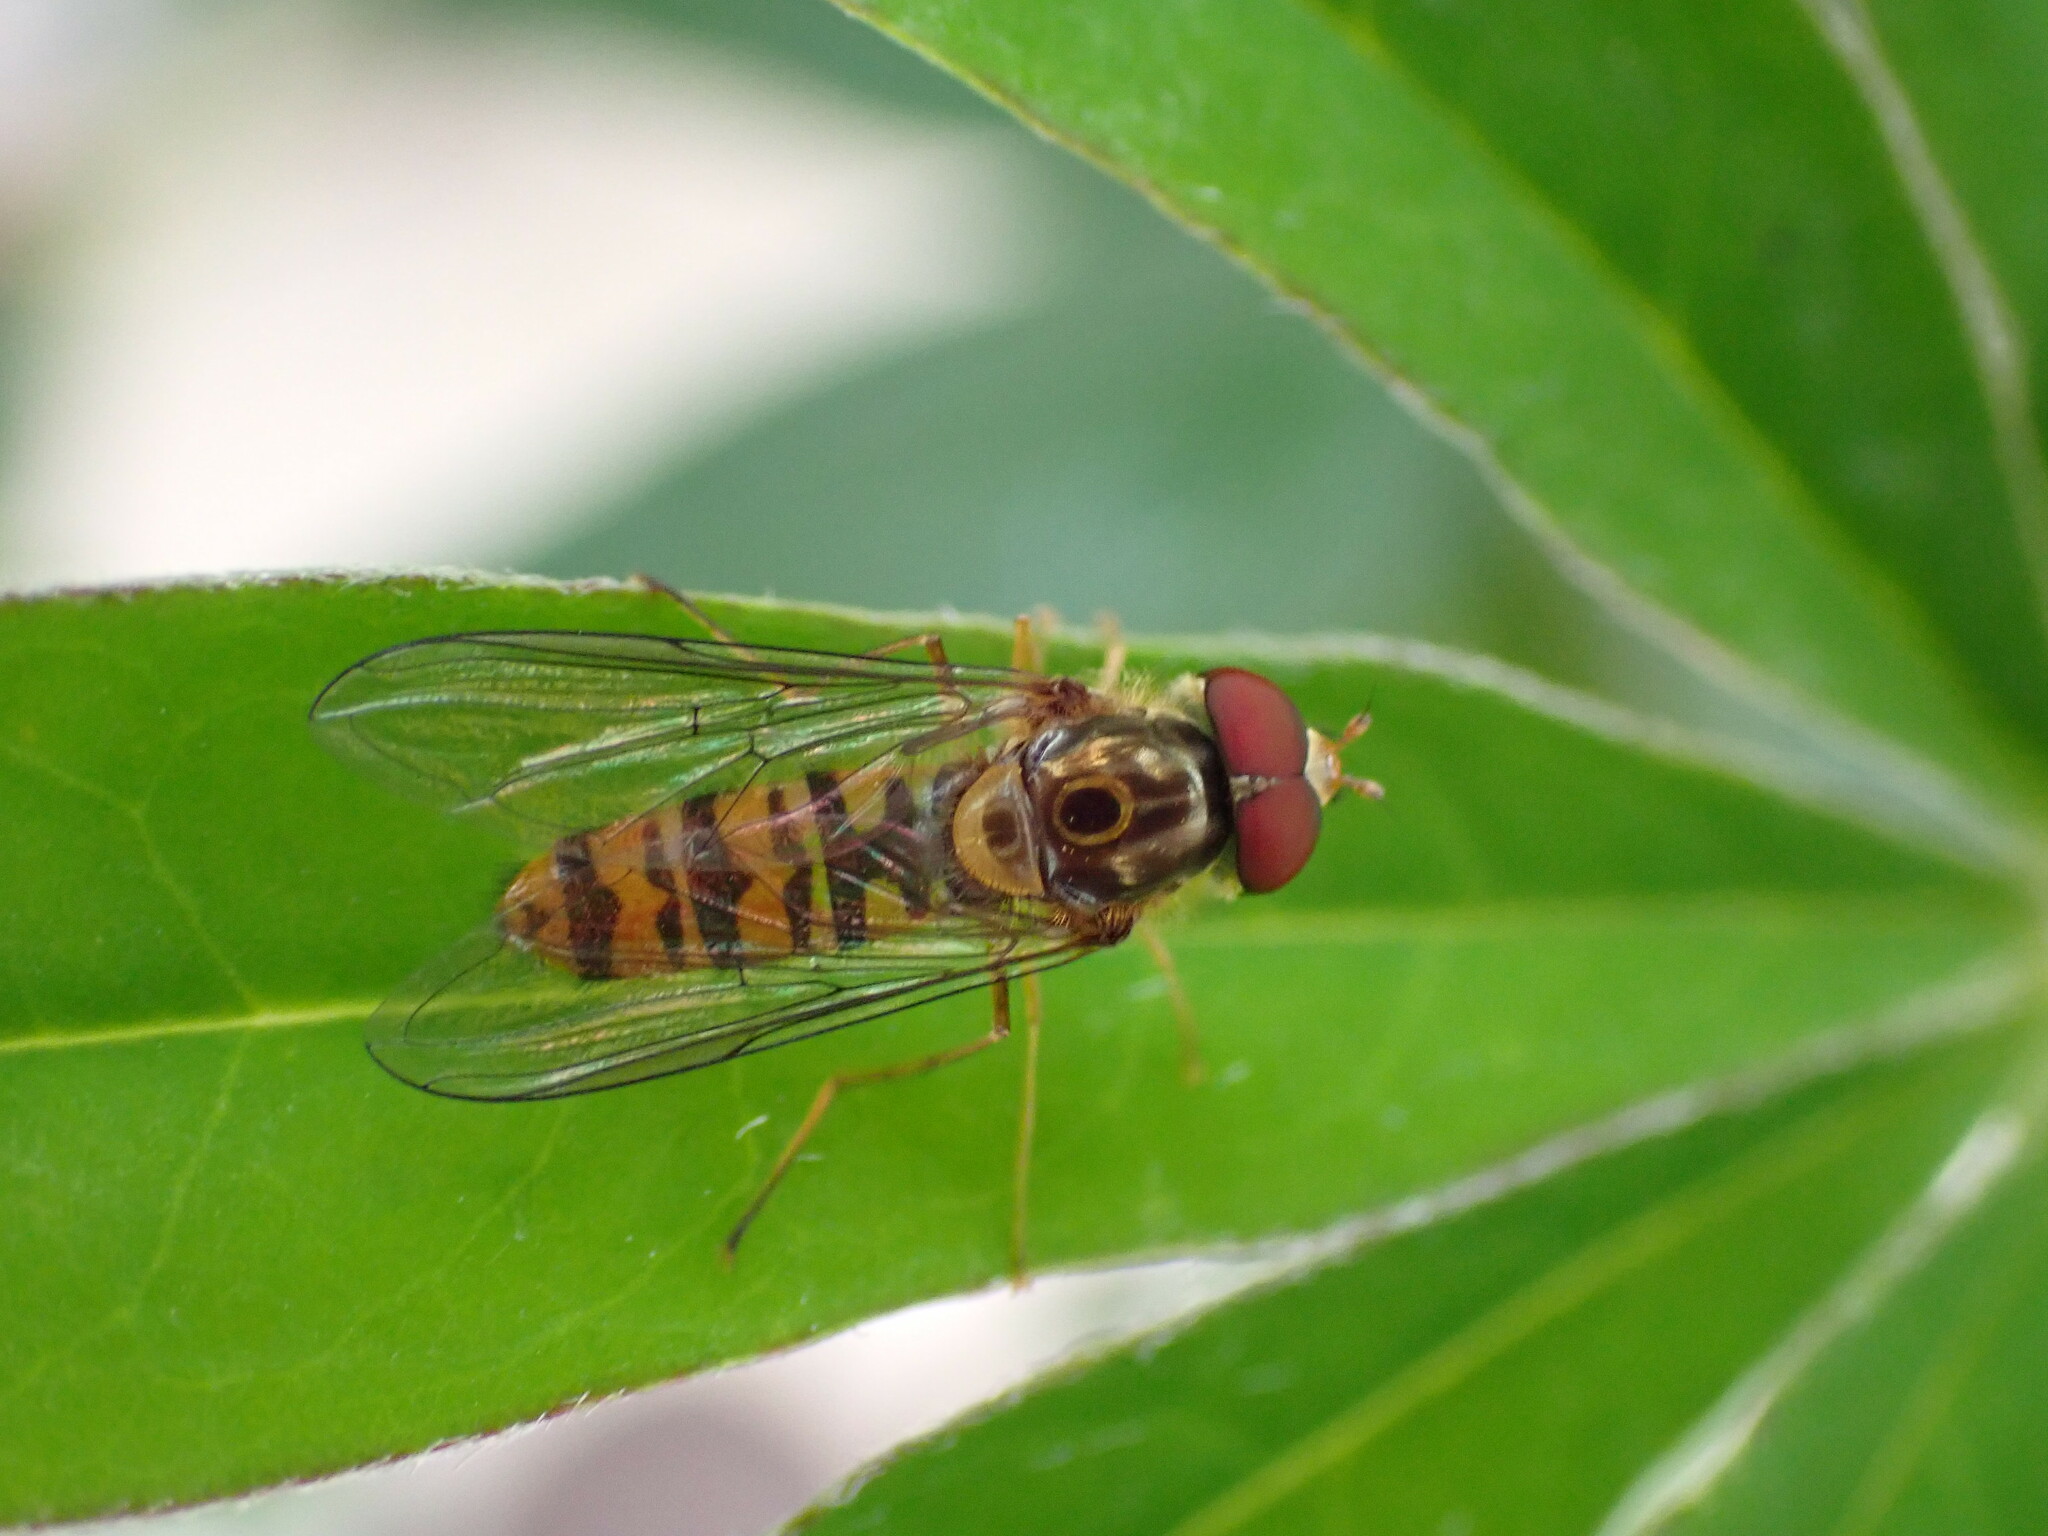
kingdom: Animalia
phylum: Arthropoda
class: Insecta
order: Diptera
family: Syrphidae
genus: Episyrphus
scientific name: Episyrphus balteatus
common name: Marmalade hoverfly
